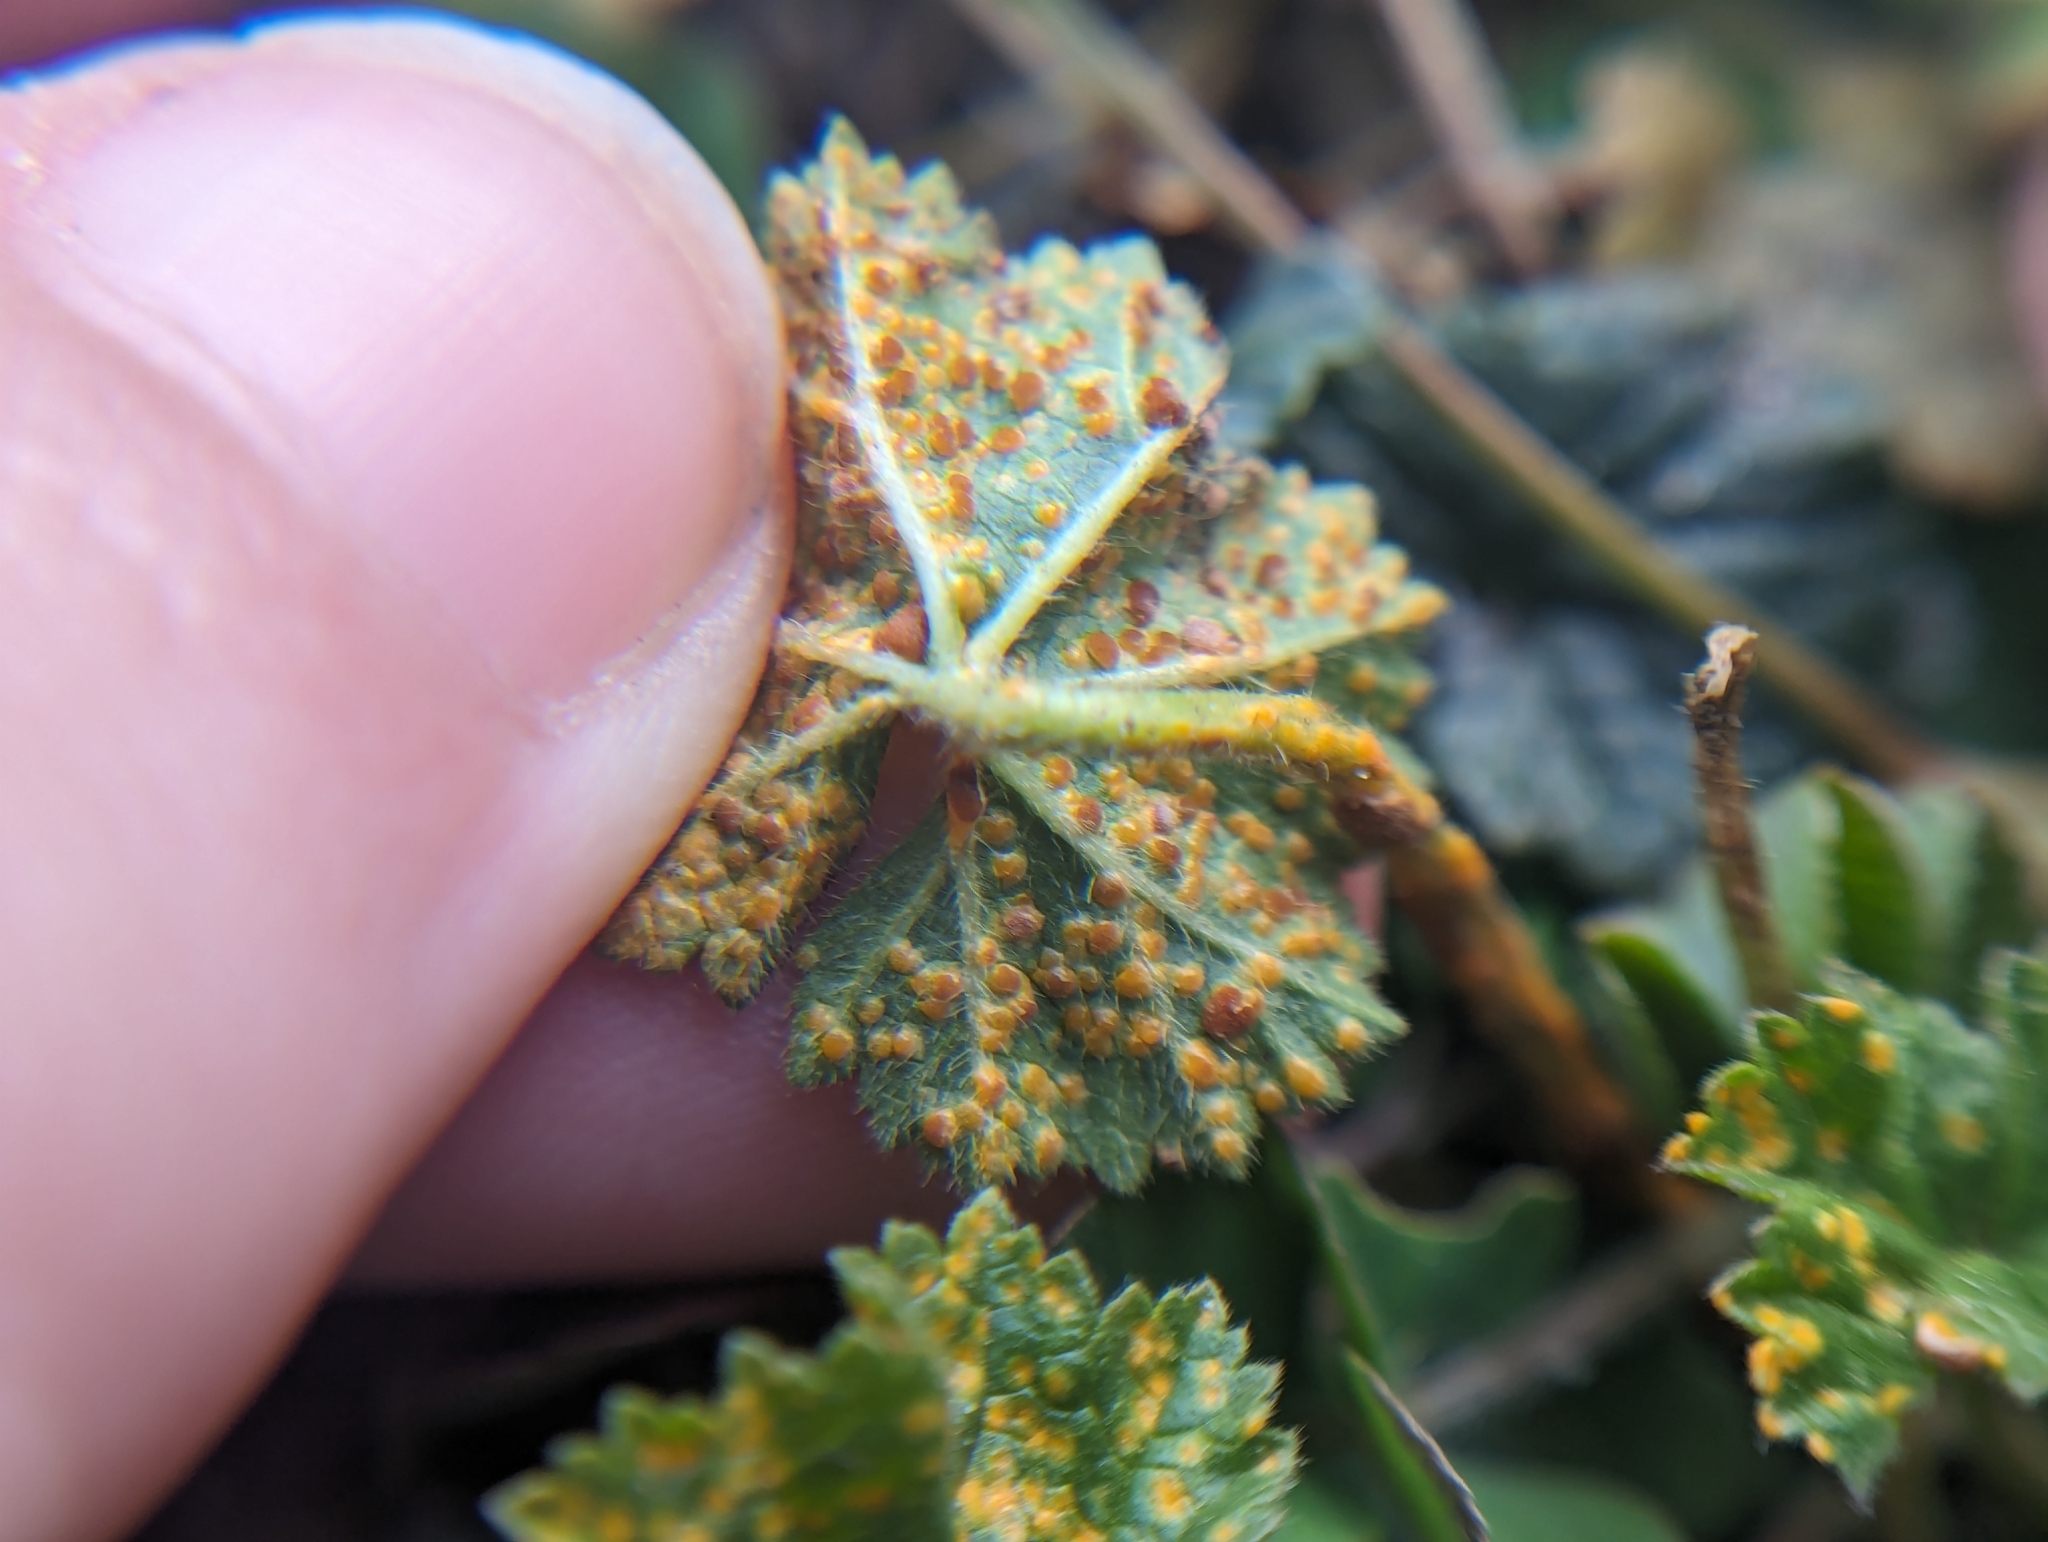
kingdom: Fungi
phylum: Basidiomycota
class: Pucciniomycetes
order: Pucciniales
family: Pucciniaceae
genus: Puccinia
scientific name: Puccinia malvacearum
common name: Hollyhock rust
